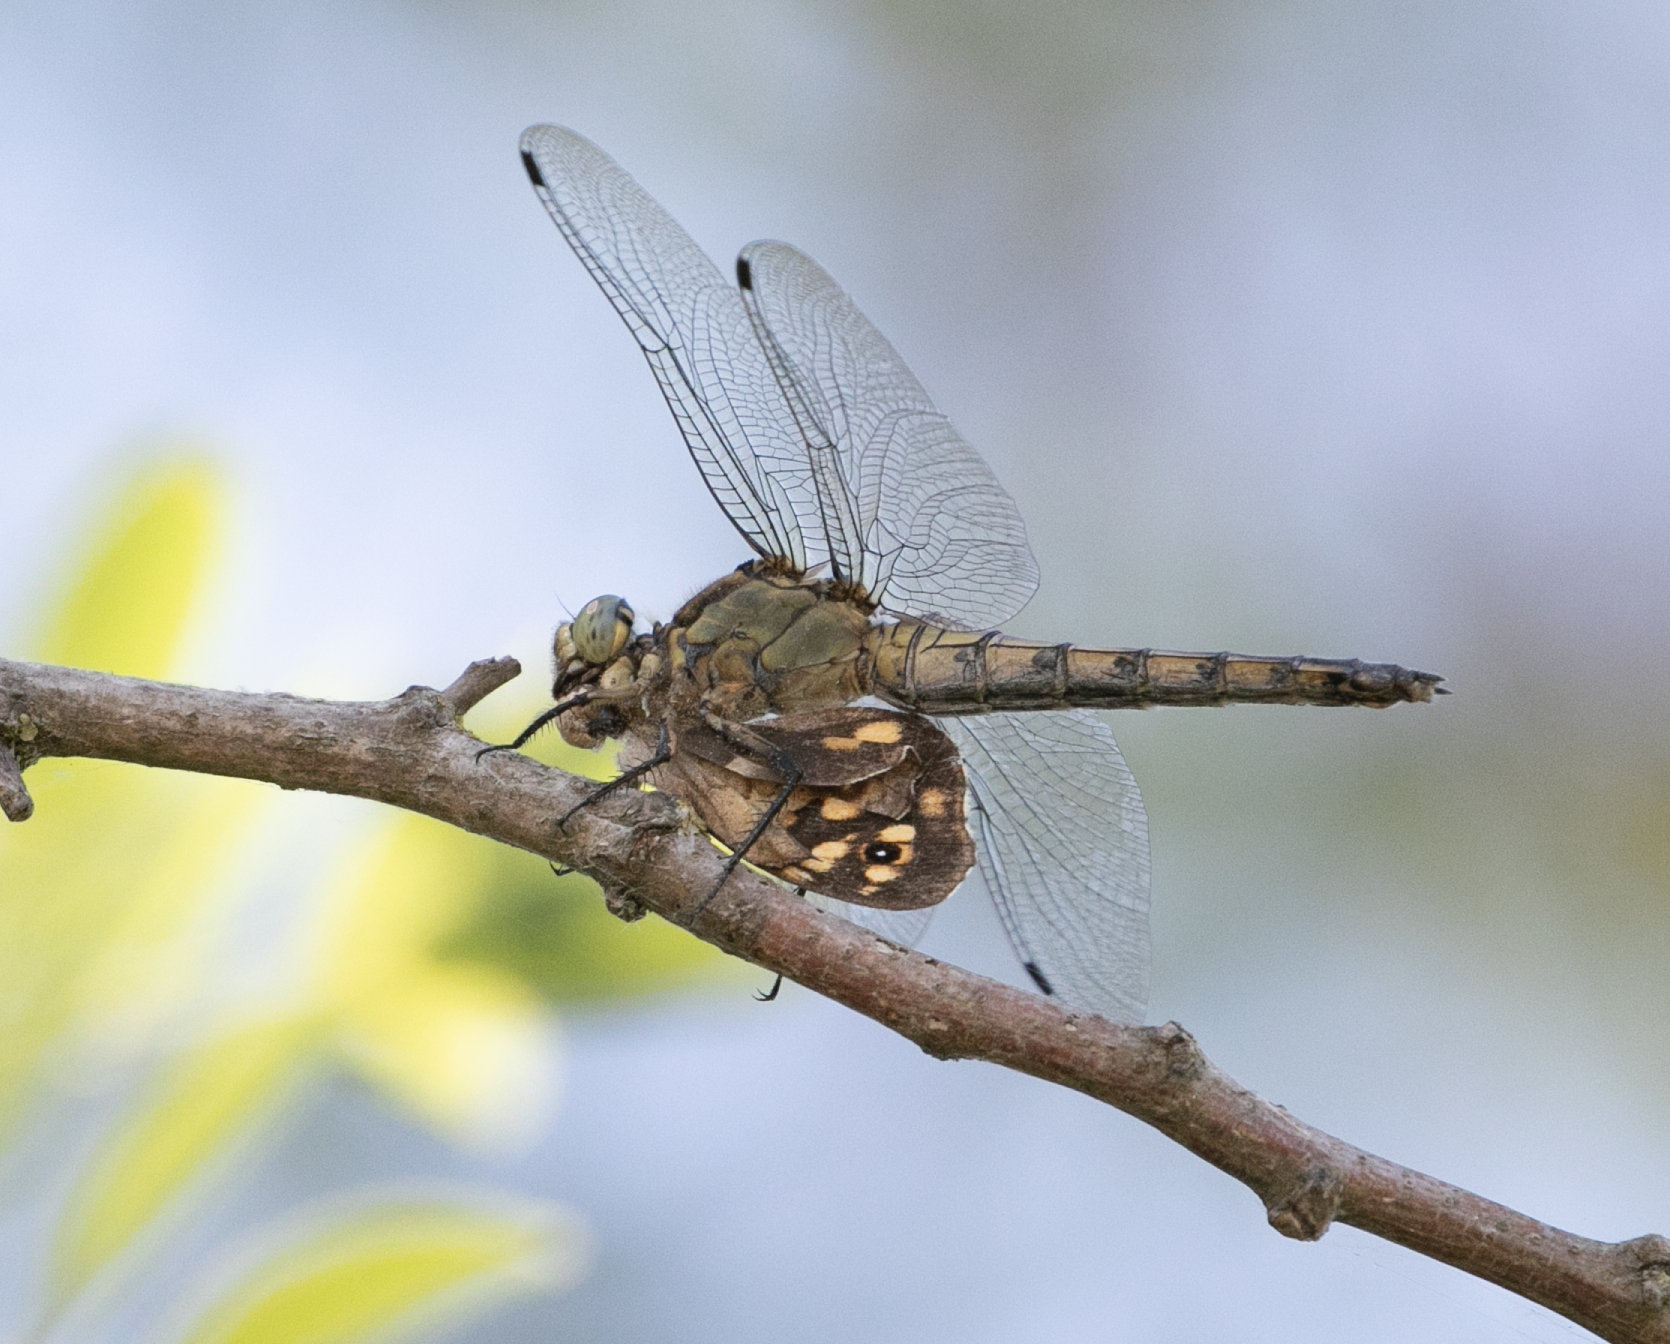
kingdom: Animalia
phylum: Arthropoda
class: Insecta
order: Odonata
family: Libellulidae
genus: Orthetrum
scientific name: Orthetrum cancellatum
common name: Black-tailed skimmer
